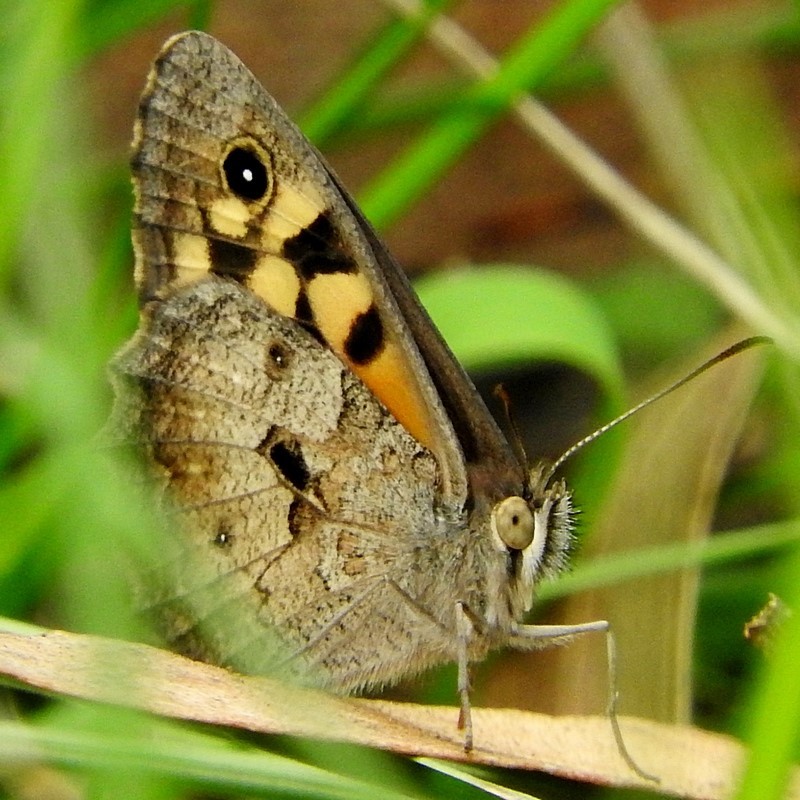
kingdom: Animalia
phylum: Arthropoda
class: Insecta
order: Lepidoptera
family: Nymphalidae
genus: Geitoneura
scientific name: Geitoneura klugii
